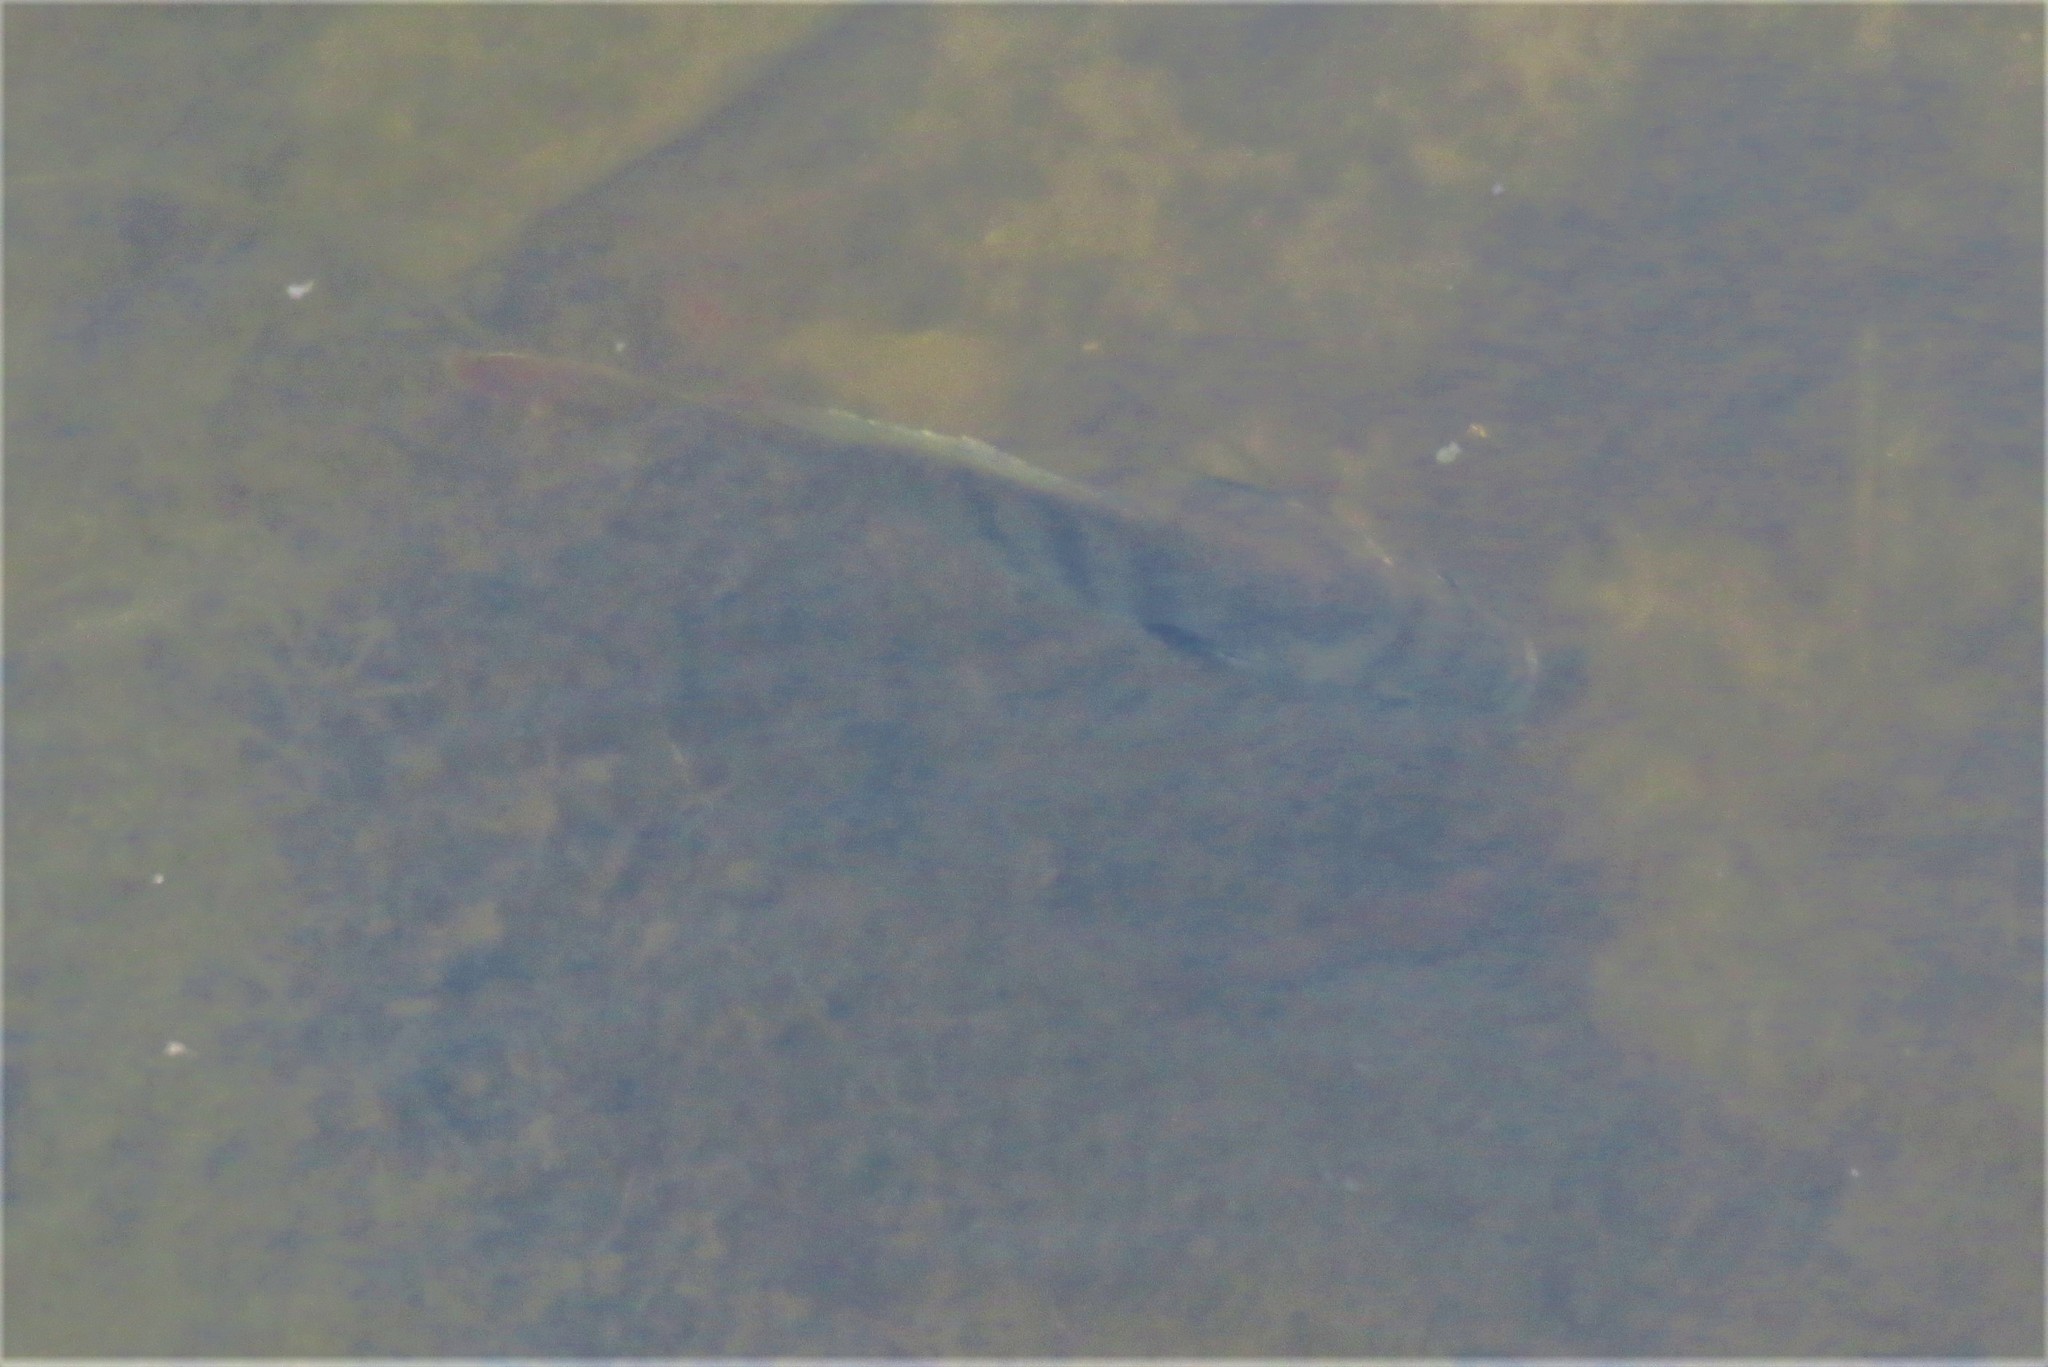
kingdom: Animalia
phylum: Chordata
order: Perciformes
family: Centrarchidae
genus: Lepomis
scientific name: Lepomis macrochirus
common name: Bluegill
